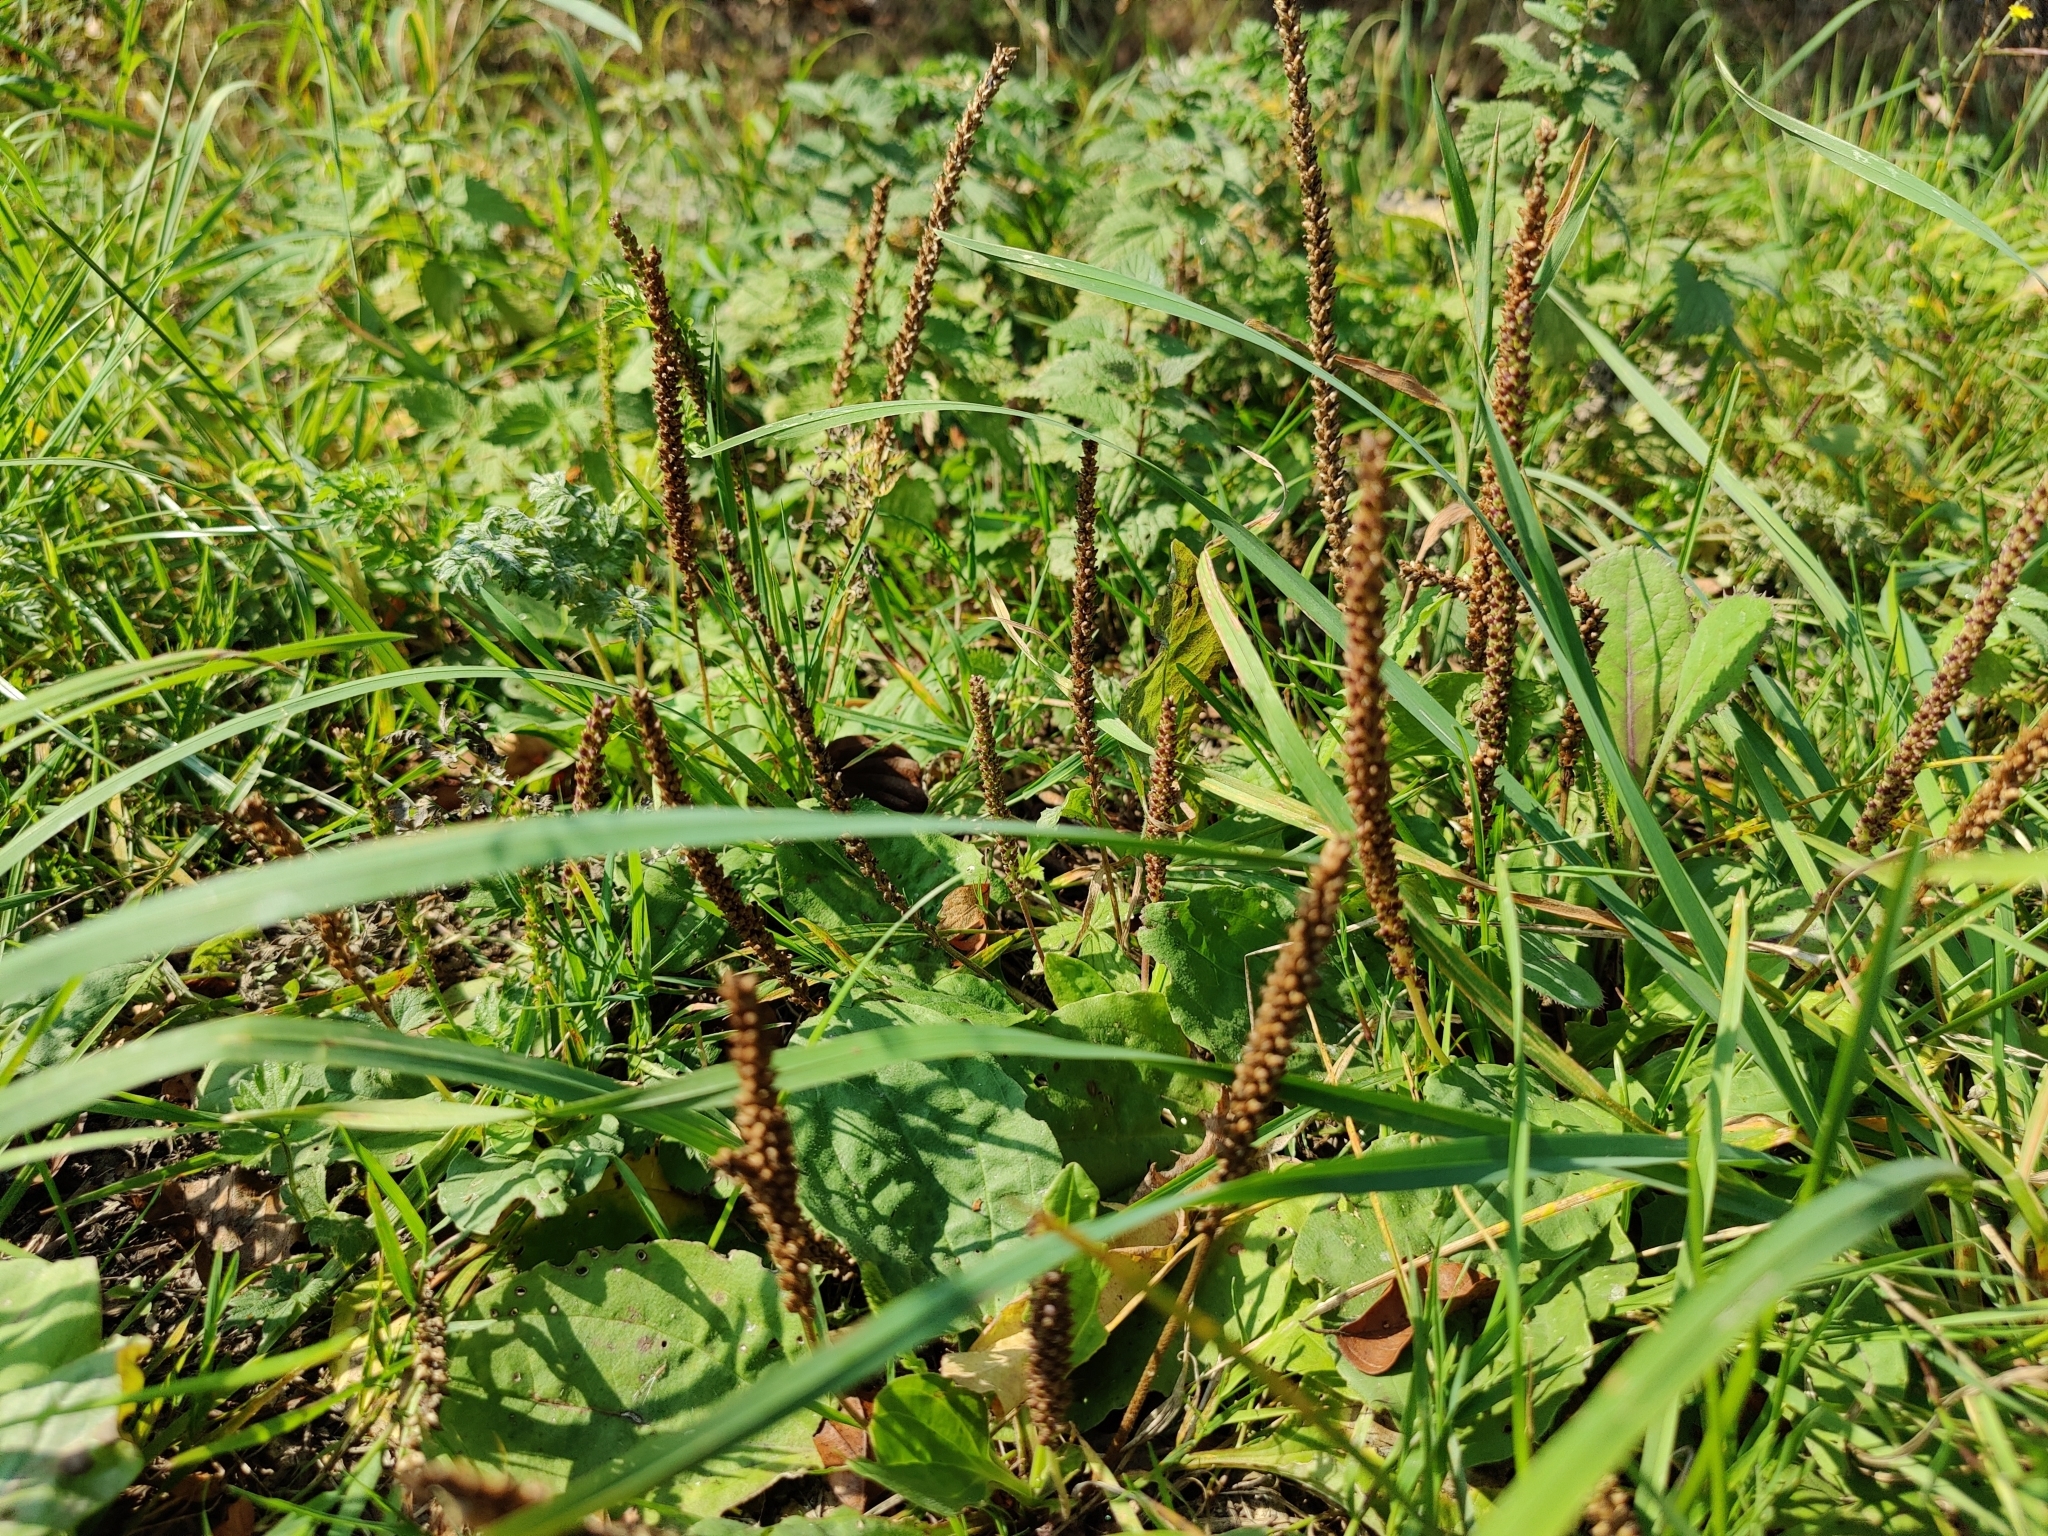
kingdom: Plantae
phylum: Tracheophyta
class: Magnoliopsida
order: Lamiales
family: Plantaginaceae
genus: Plantago
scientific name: Plantago major
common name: Common plantain
